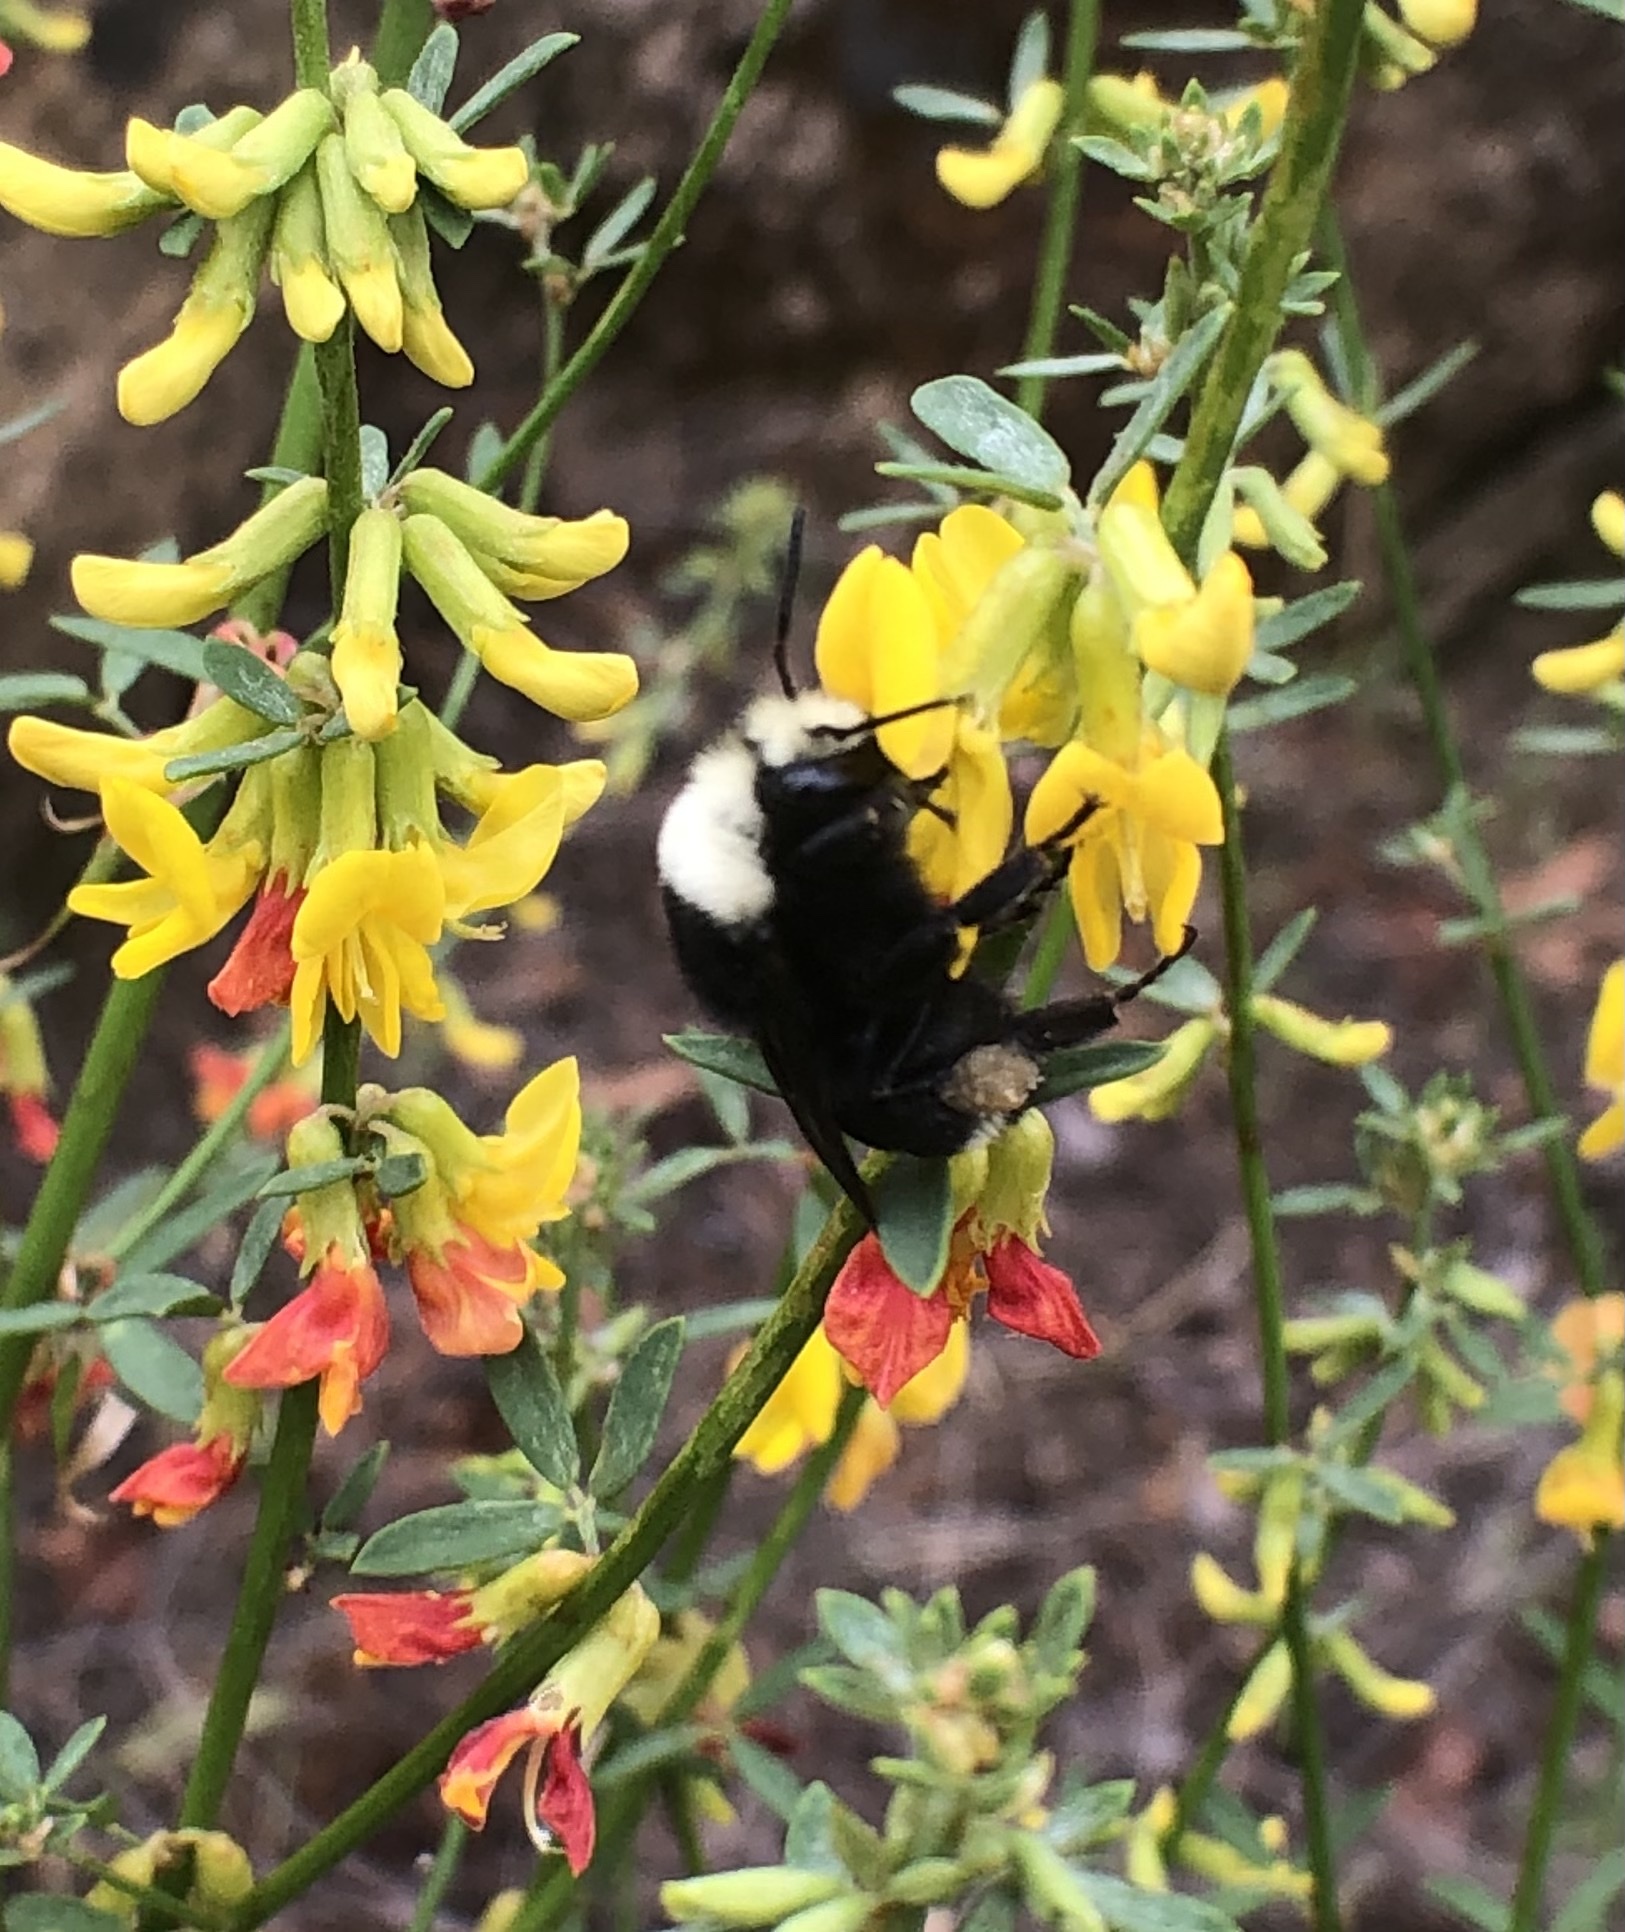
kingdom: Animalia
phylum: Arthropoda
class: Insecta
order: Hymenoptera
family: Apidae
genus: Bombus
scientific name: Bombus vosnesenskii
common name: Vosnesensky bumble bee
